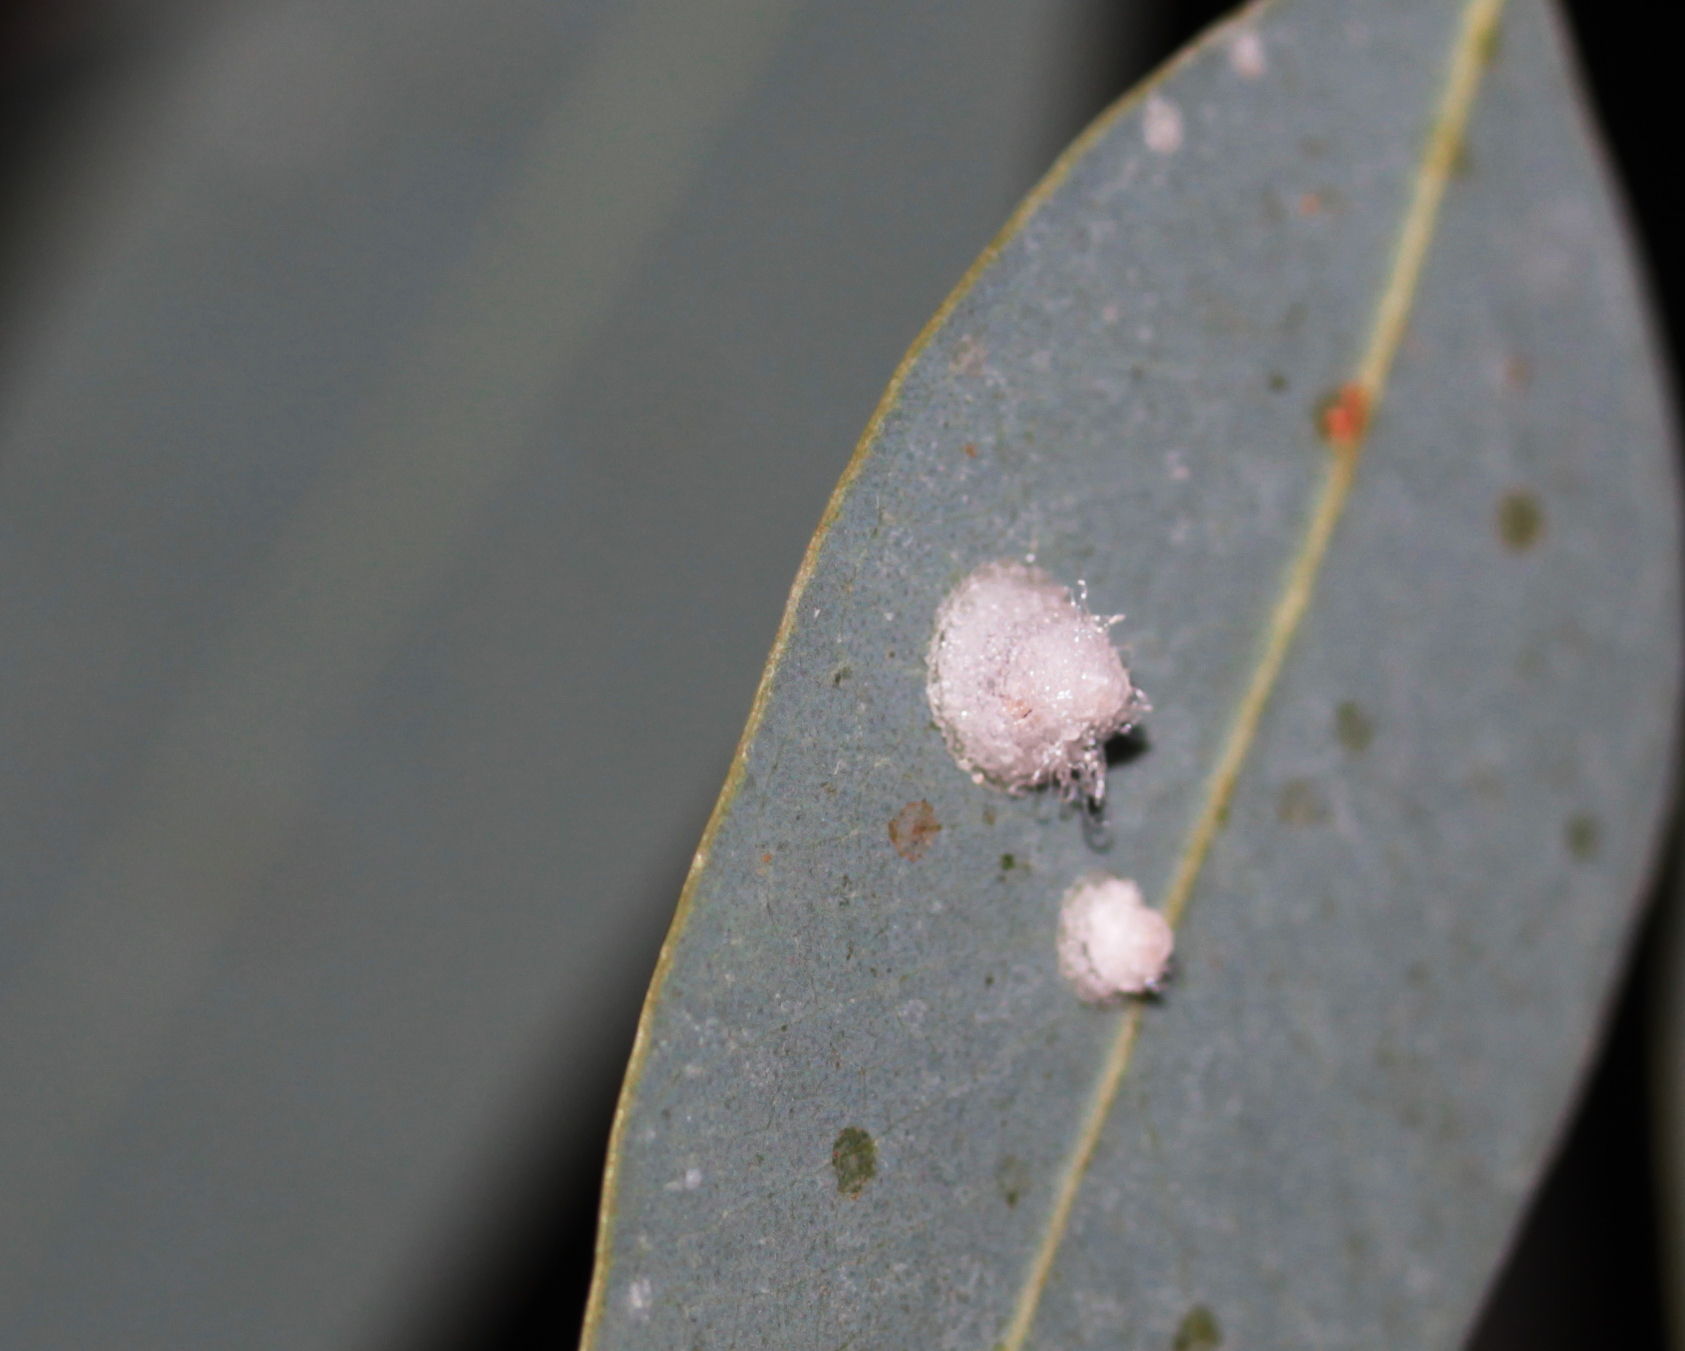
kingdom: Animalia
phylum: Arthropoda
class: Insecta
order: Hemiptera
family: Aphalaridae
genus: Glycaspis
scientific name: Glycaspis brimblecombei
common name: Red gum lerp psyllid
